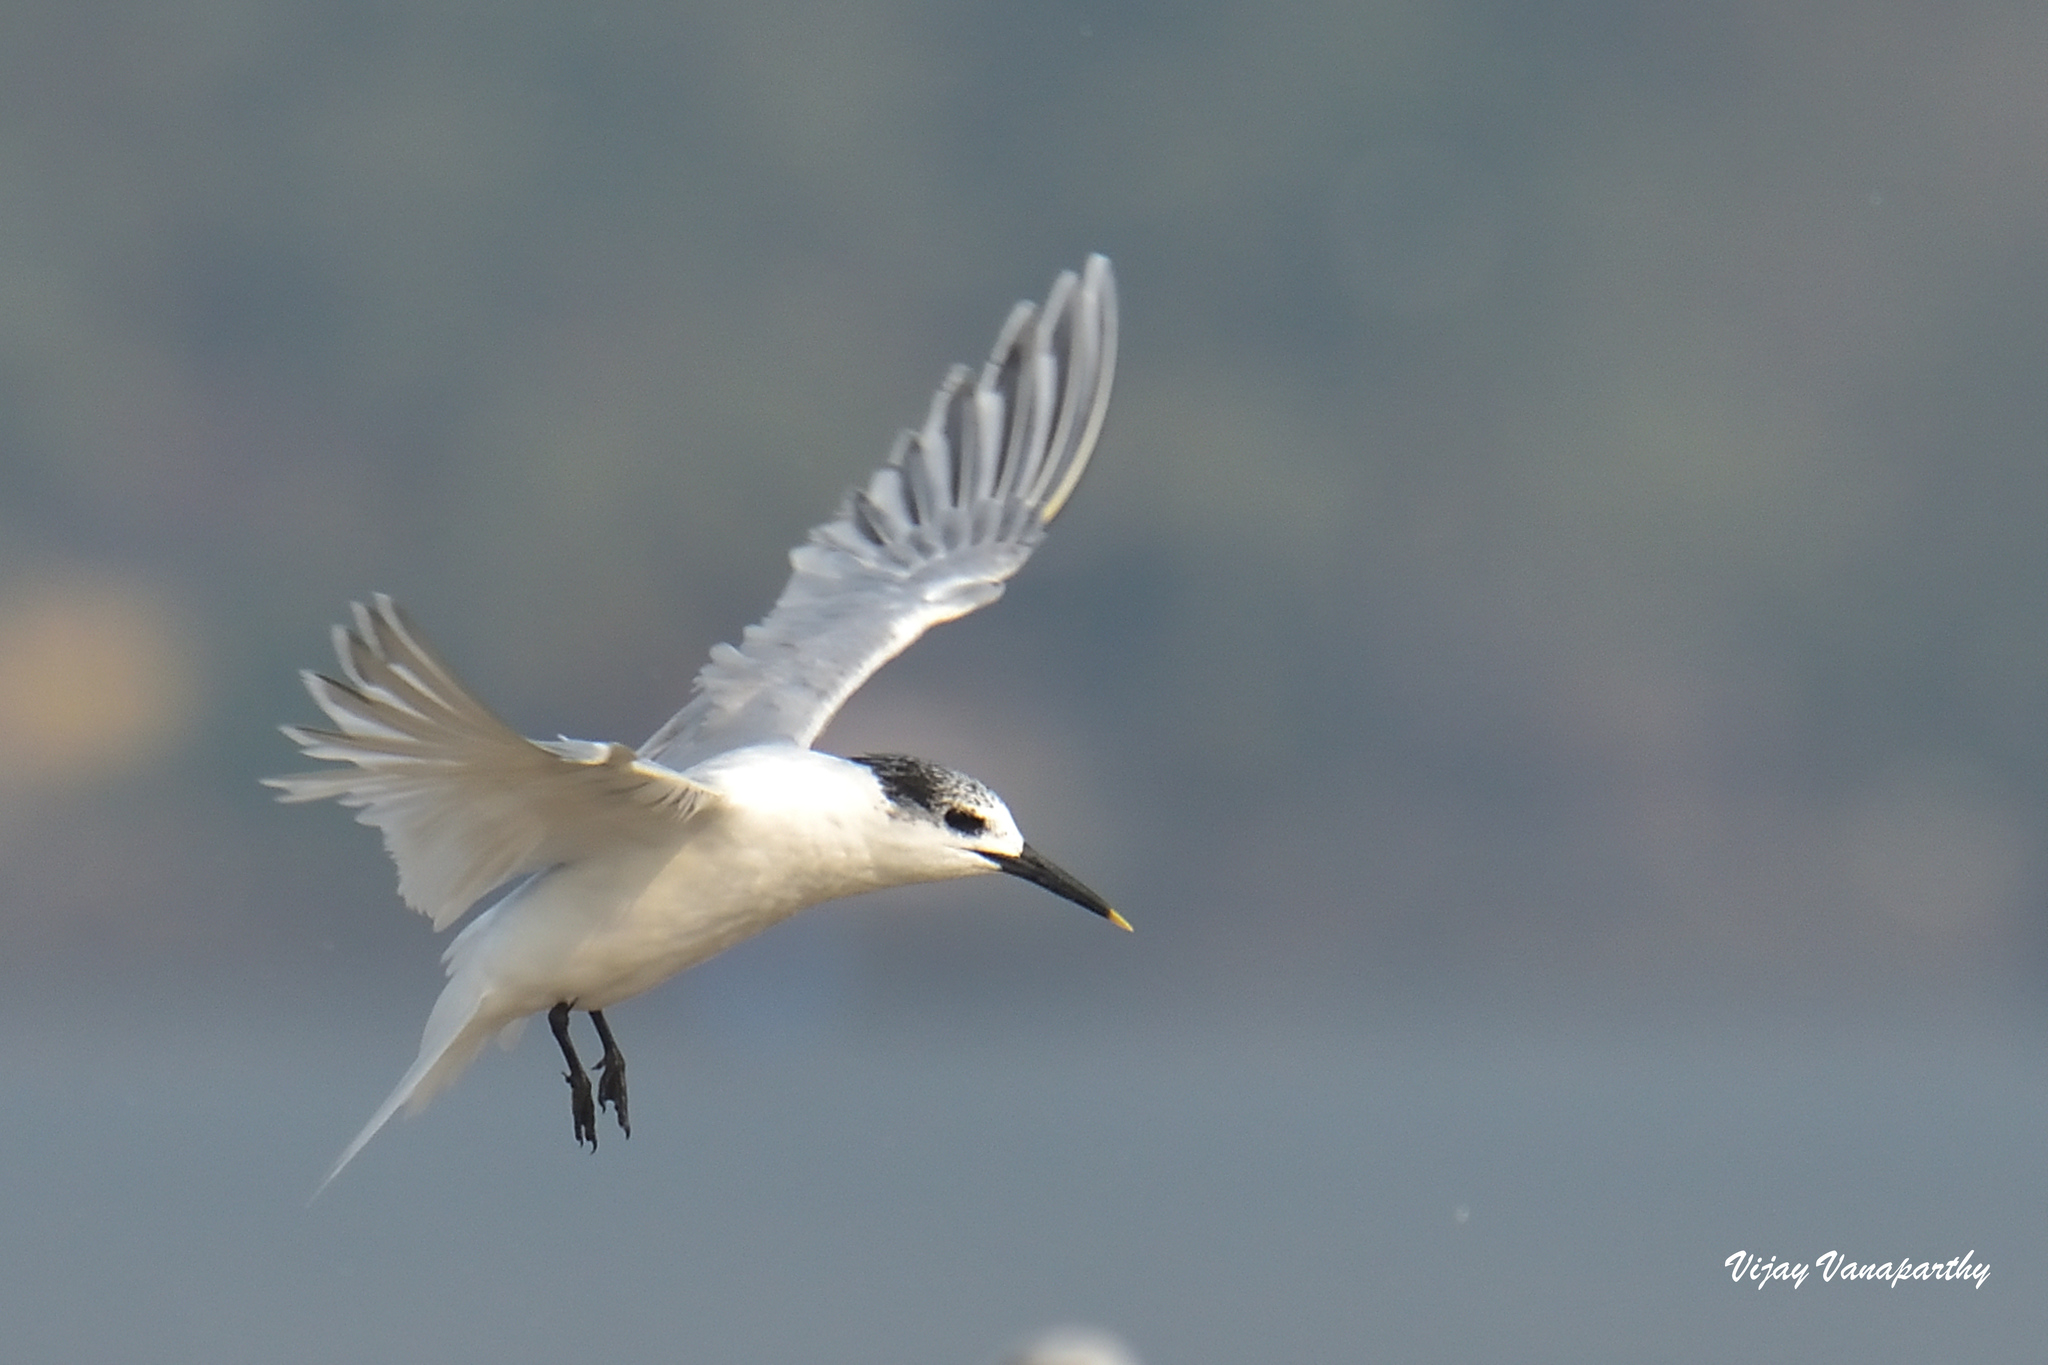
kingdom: Animalia
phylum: Chordata
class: Aves
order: Charadriiformes
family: Laridae
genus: Thalasseus
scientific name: Thalasseus sandvicensis
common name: Sandwich tern
